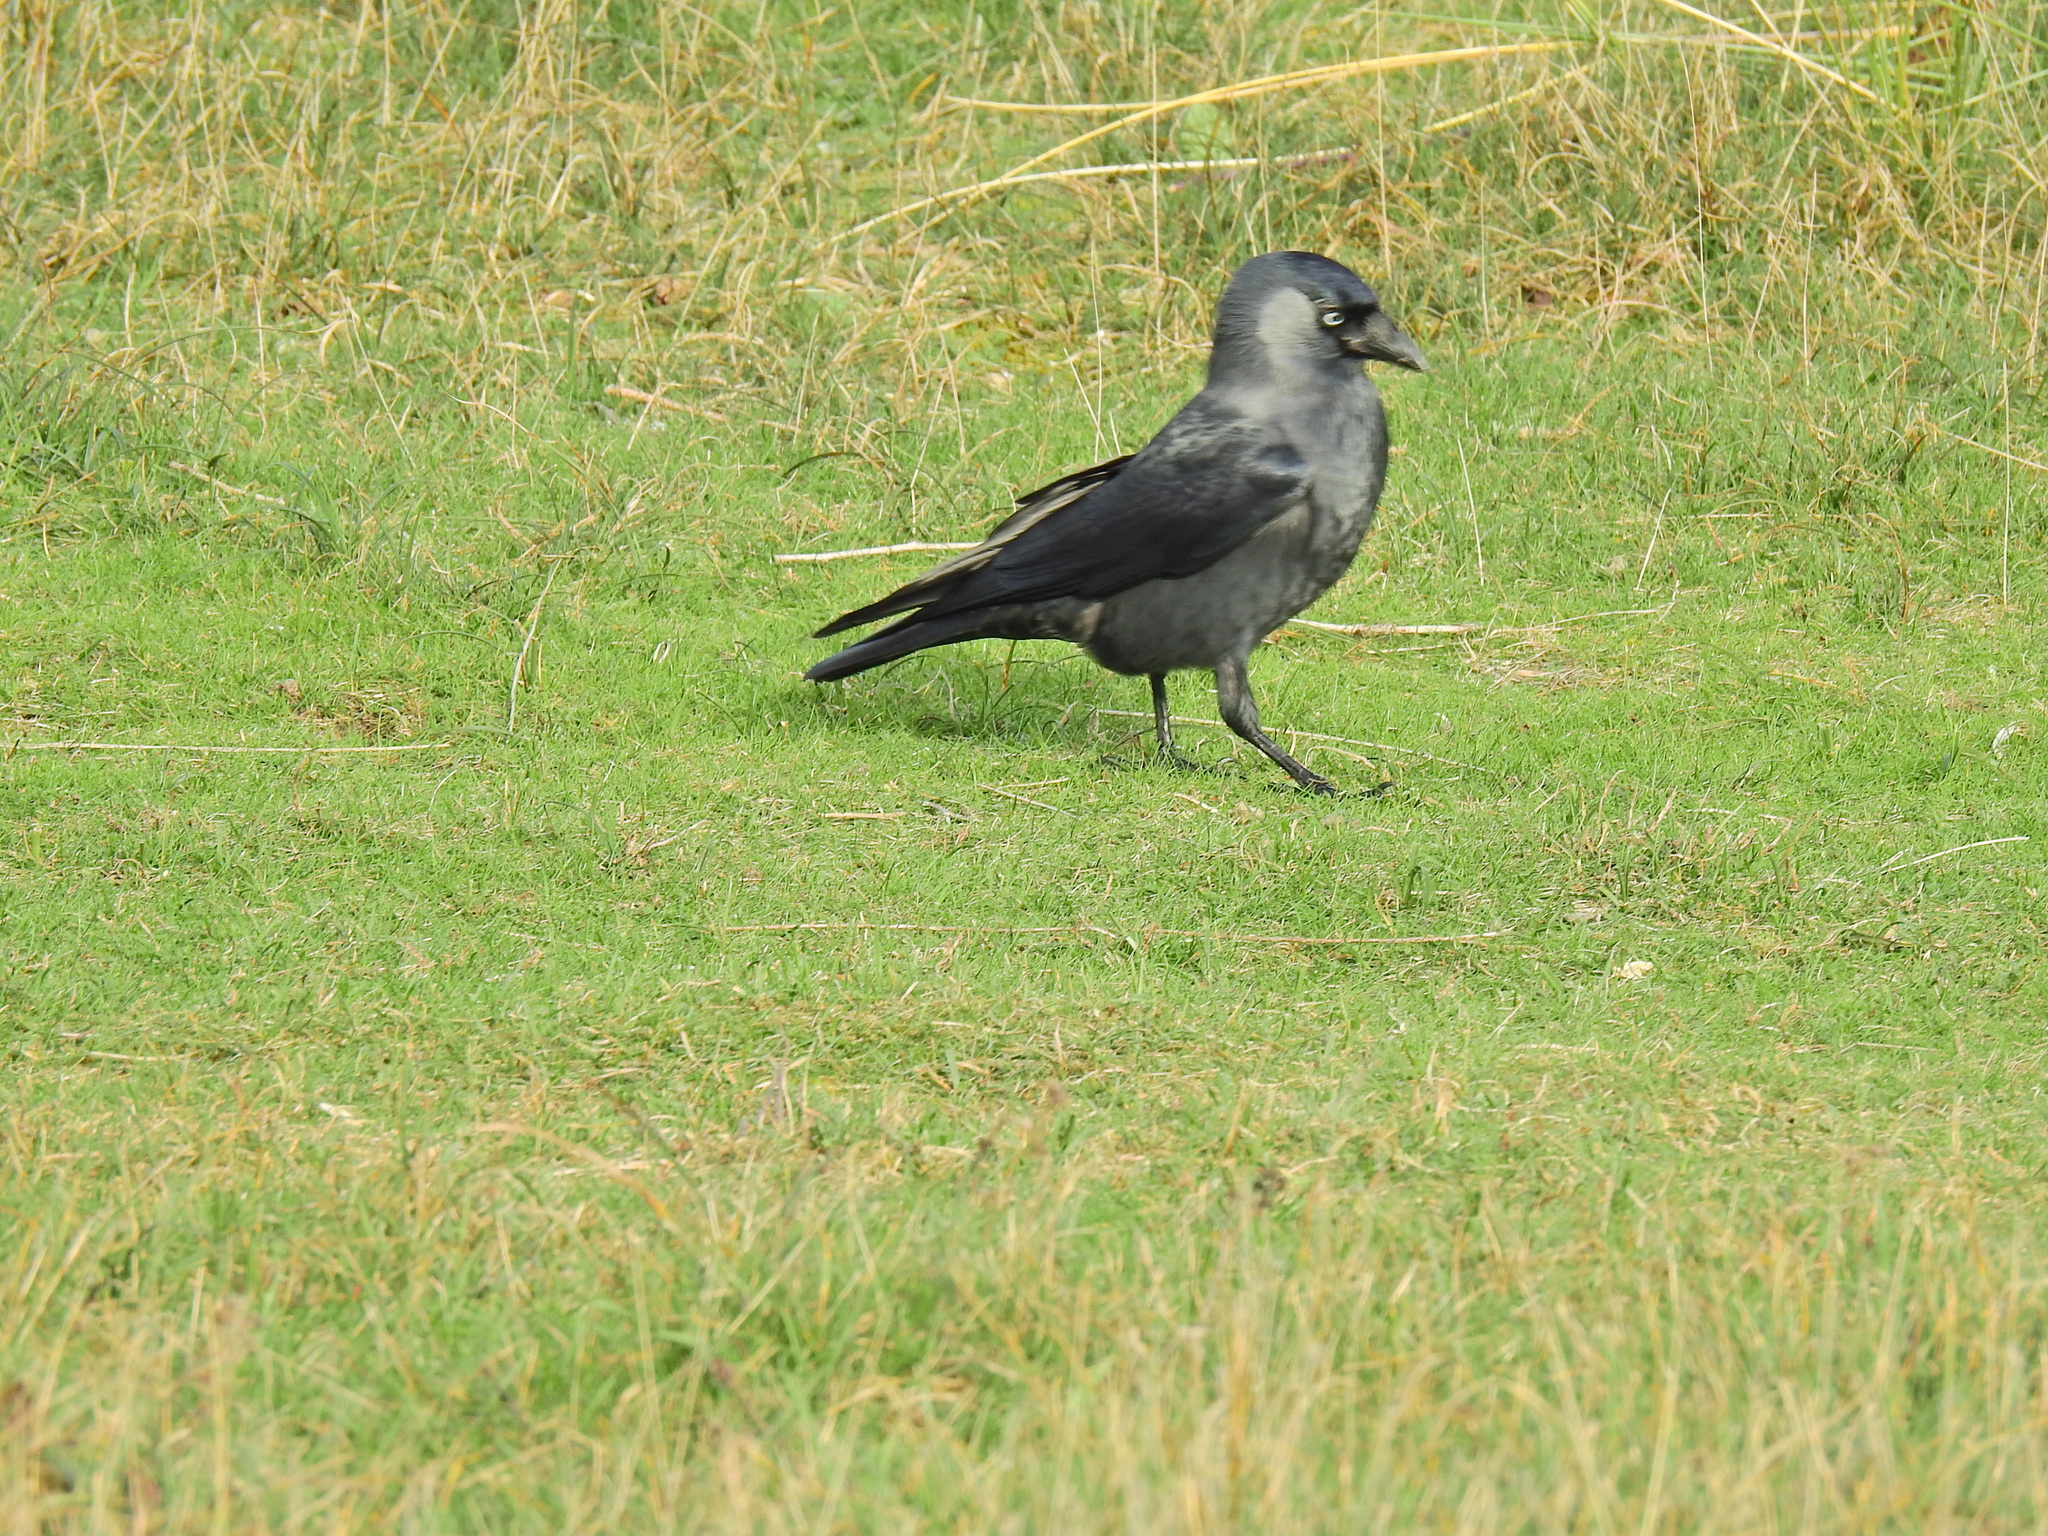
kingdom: Animalia
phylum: Chordata
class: Aves
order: Passeriformes
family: Corvidae
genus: Coloeus
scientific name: Coloeus monedula
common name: Western jackdaw
